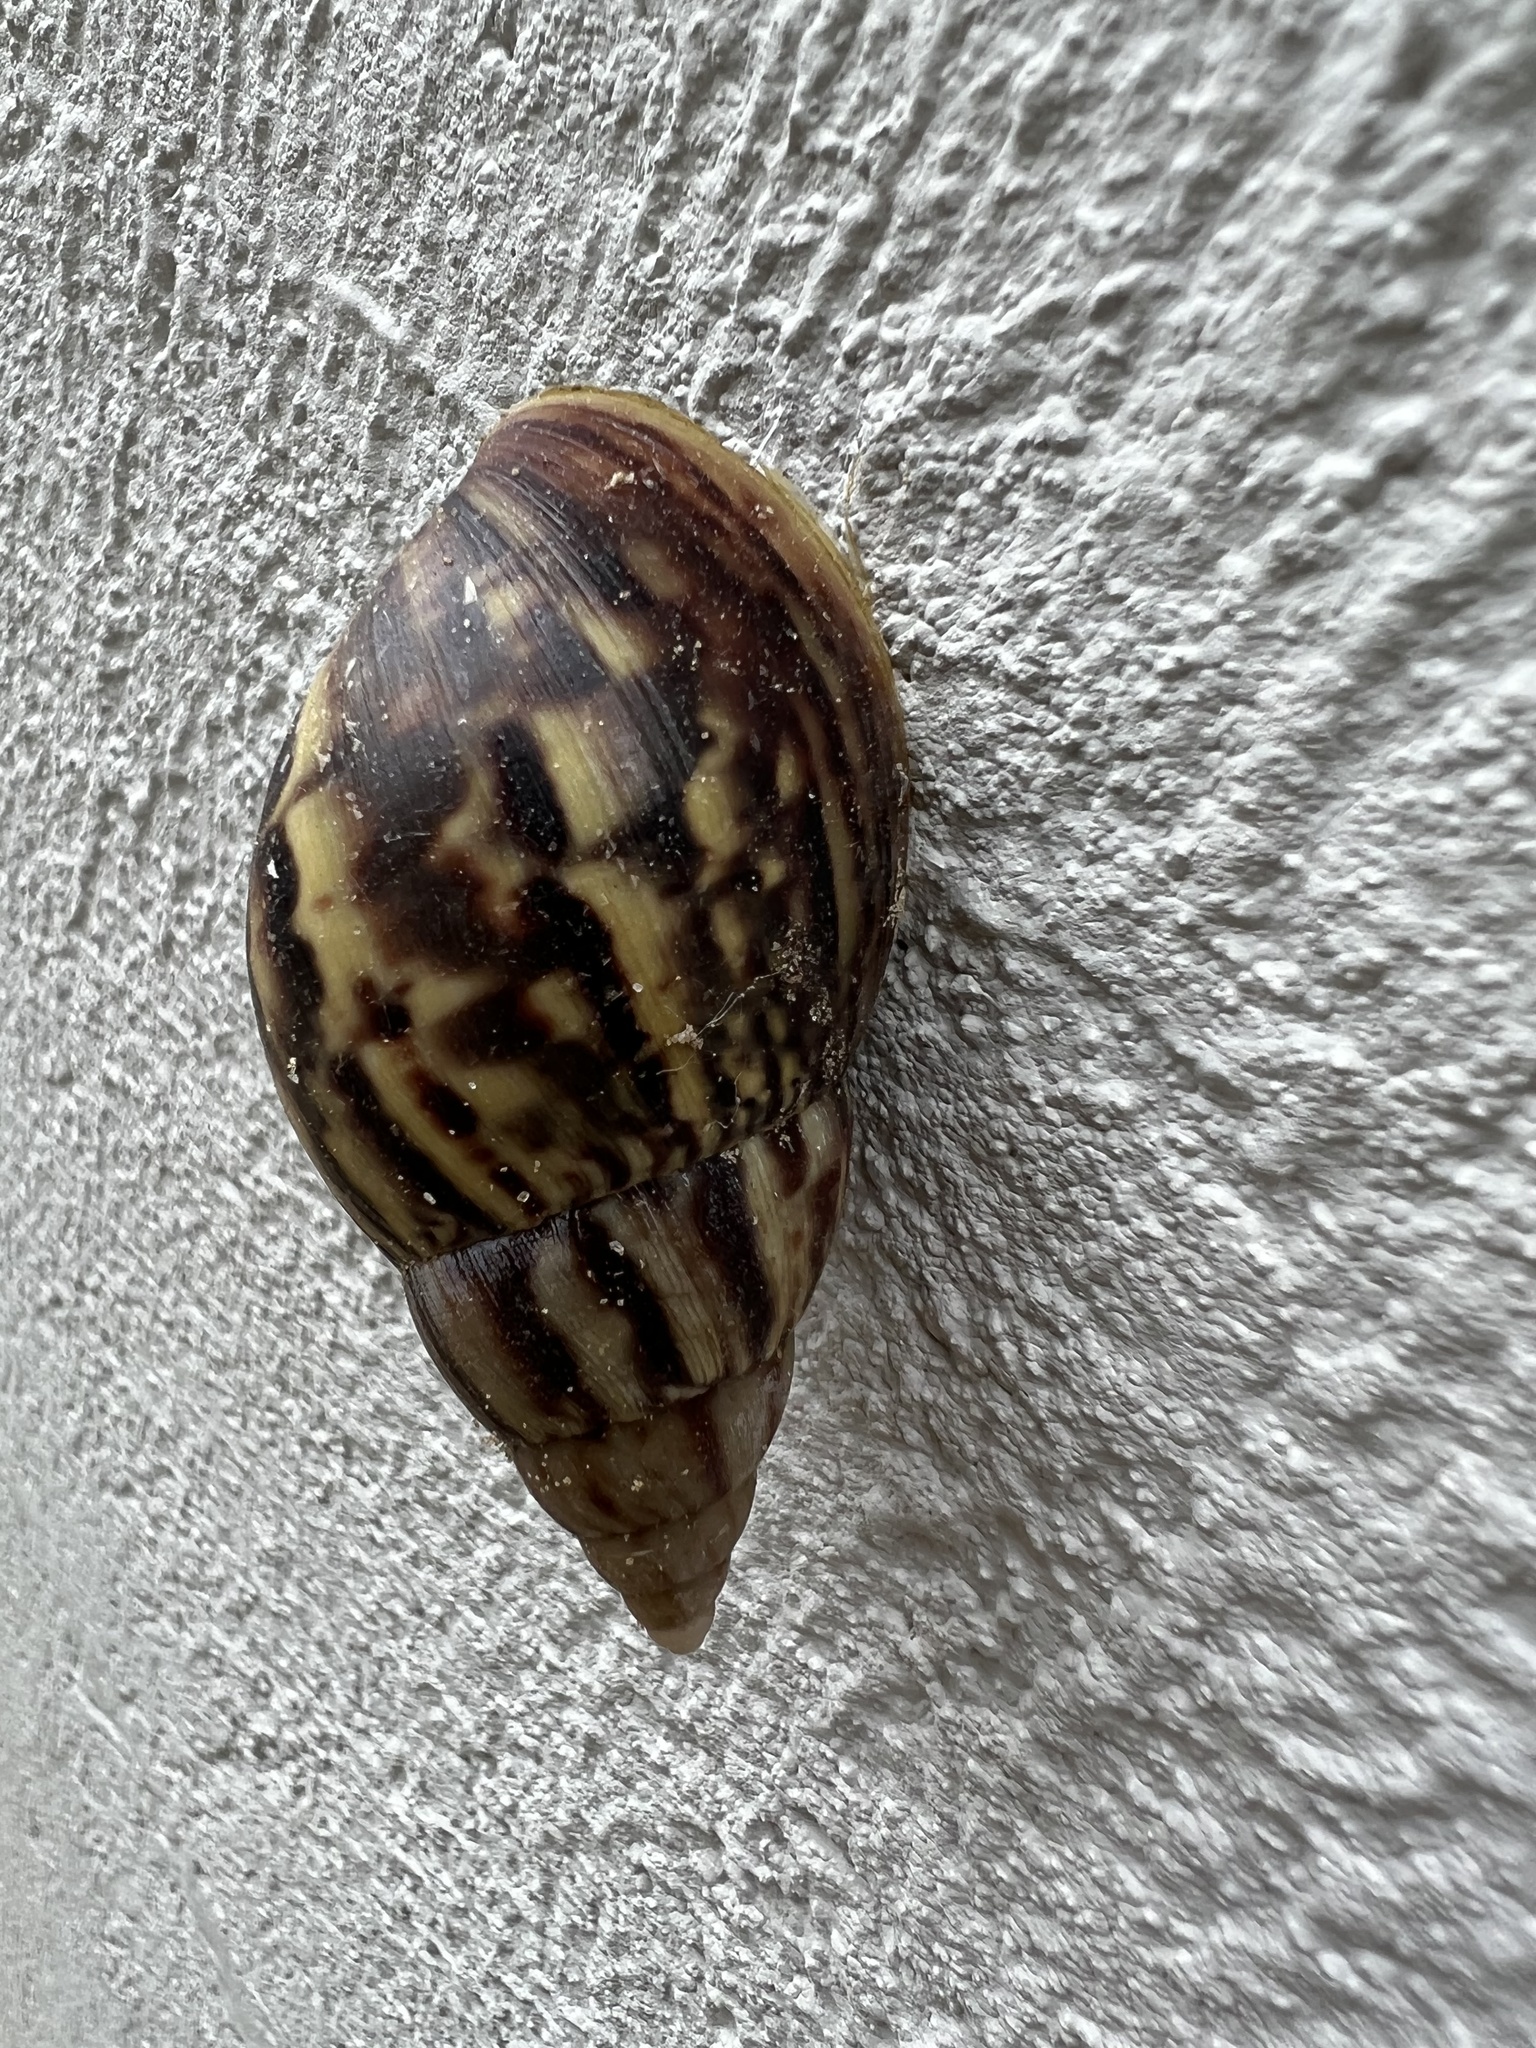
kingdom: Animalia
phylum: Mollusca
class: Gastropoda
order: Stylommatophora
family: Achatinidae
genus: Lissachatina
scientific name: Lissachatina fulica
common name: Giant african snail
